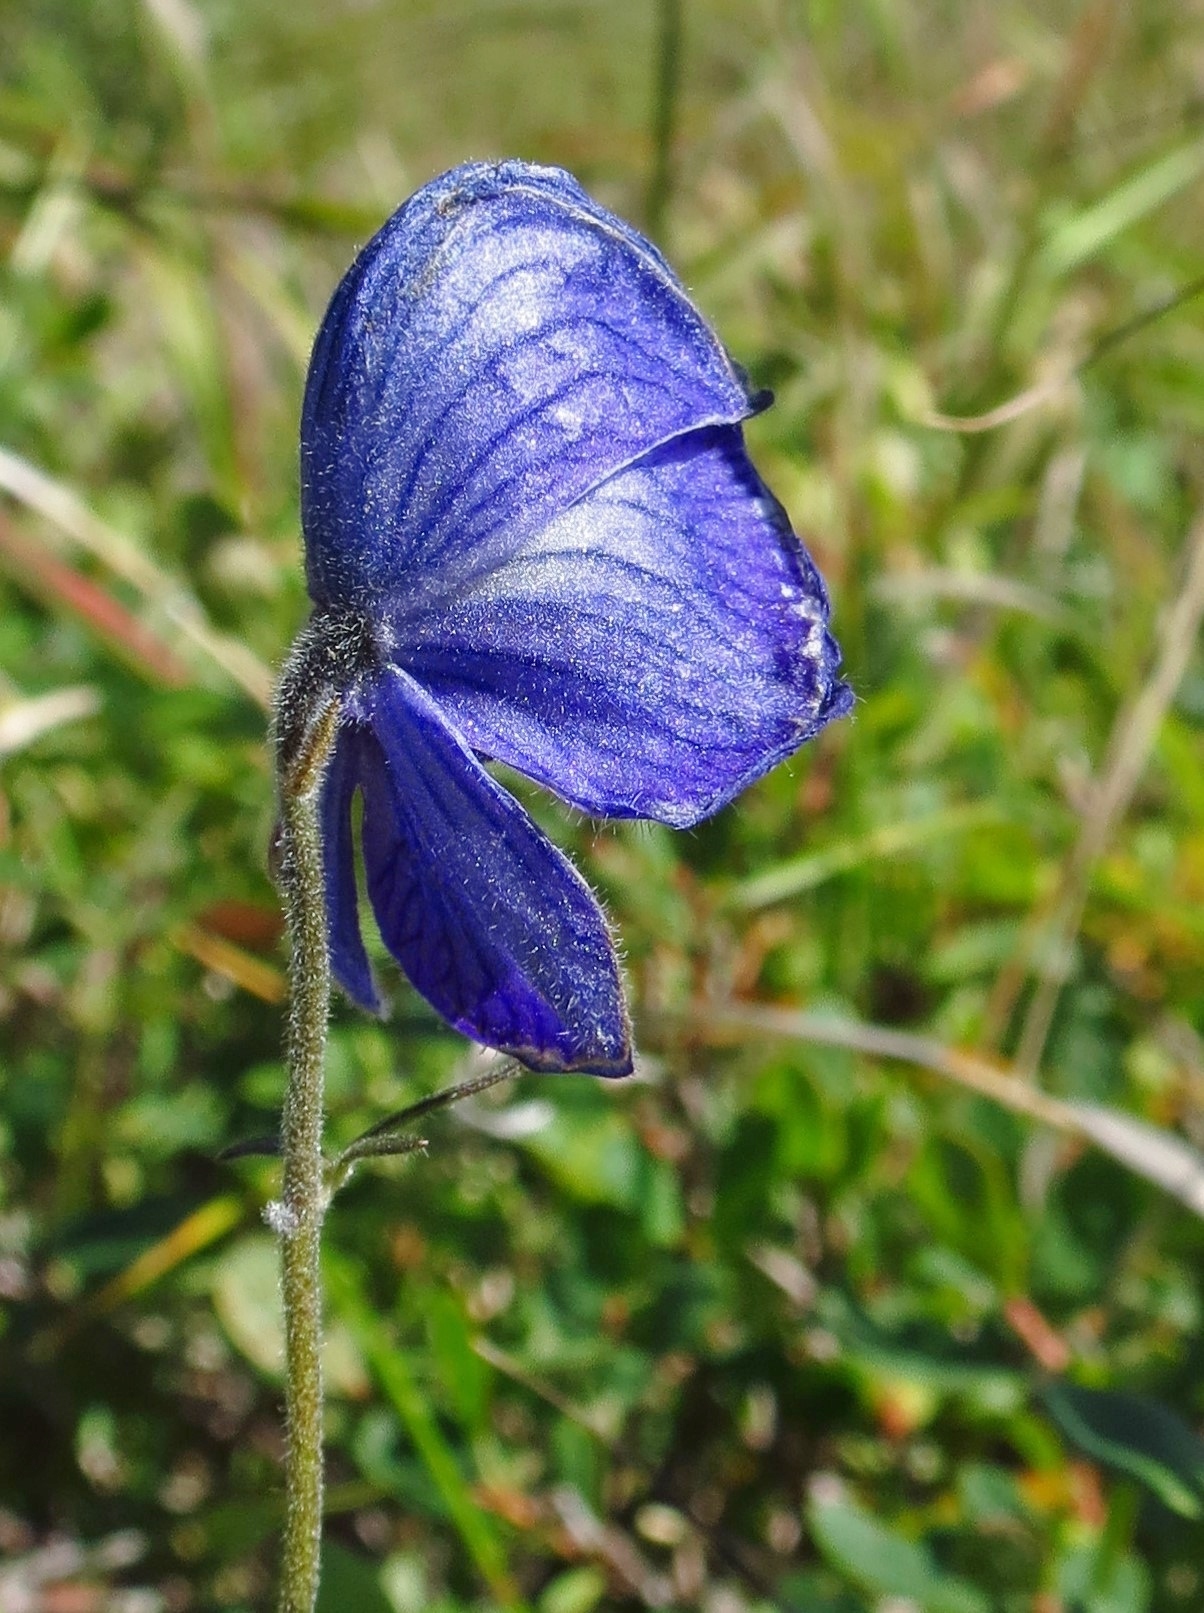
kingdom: Plantae
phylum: Tracheophyta
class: Magnoliopsida
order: Ranunculales
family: Ranunculaceae
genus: Aconitum
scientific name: Aconitum delphiniifolium
